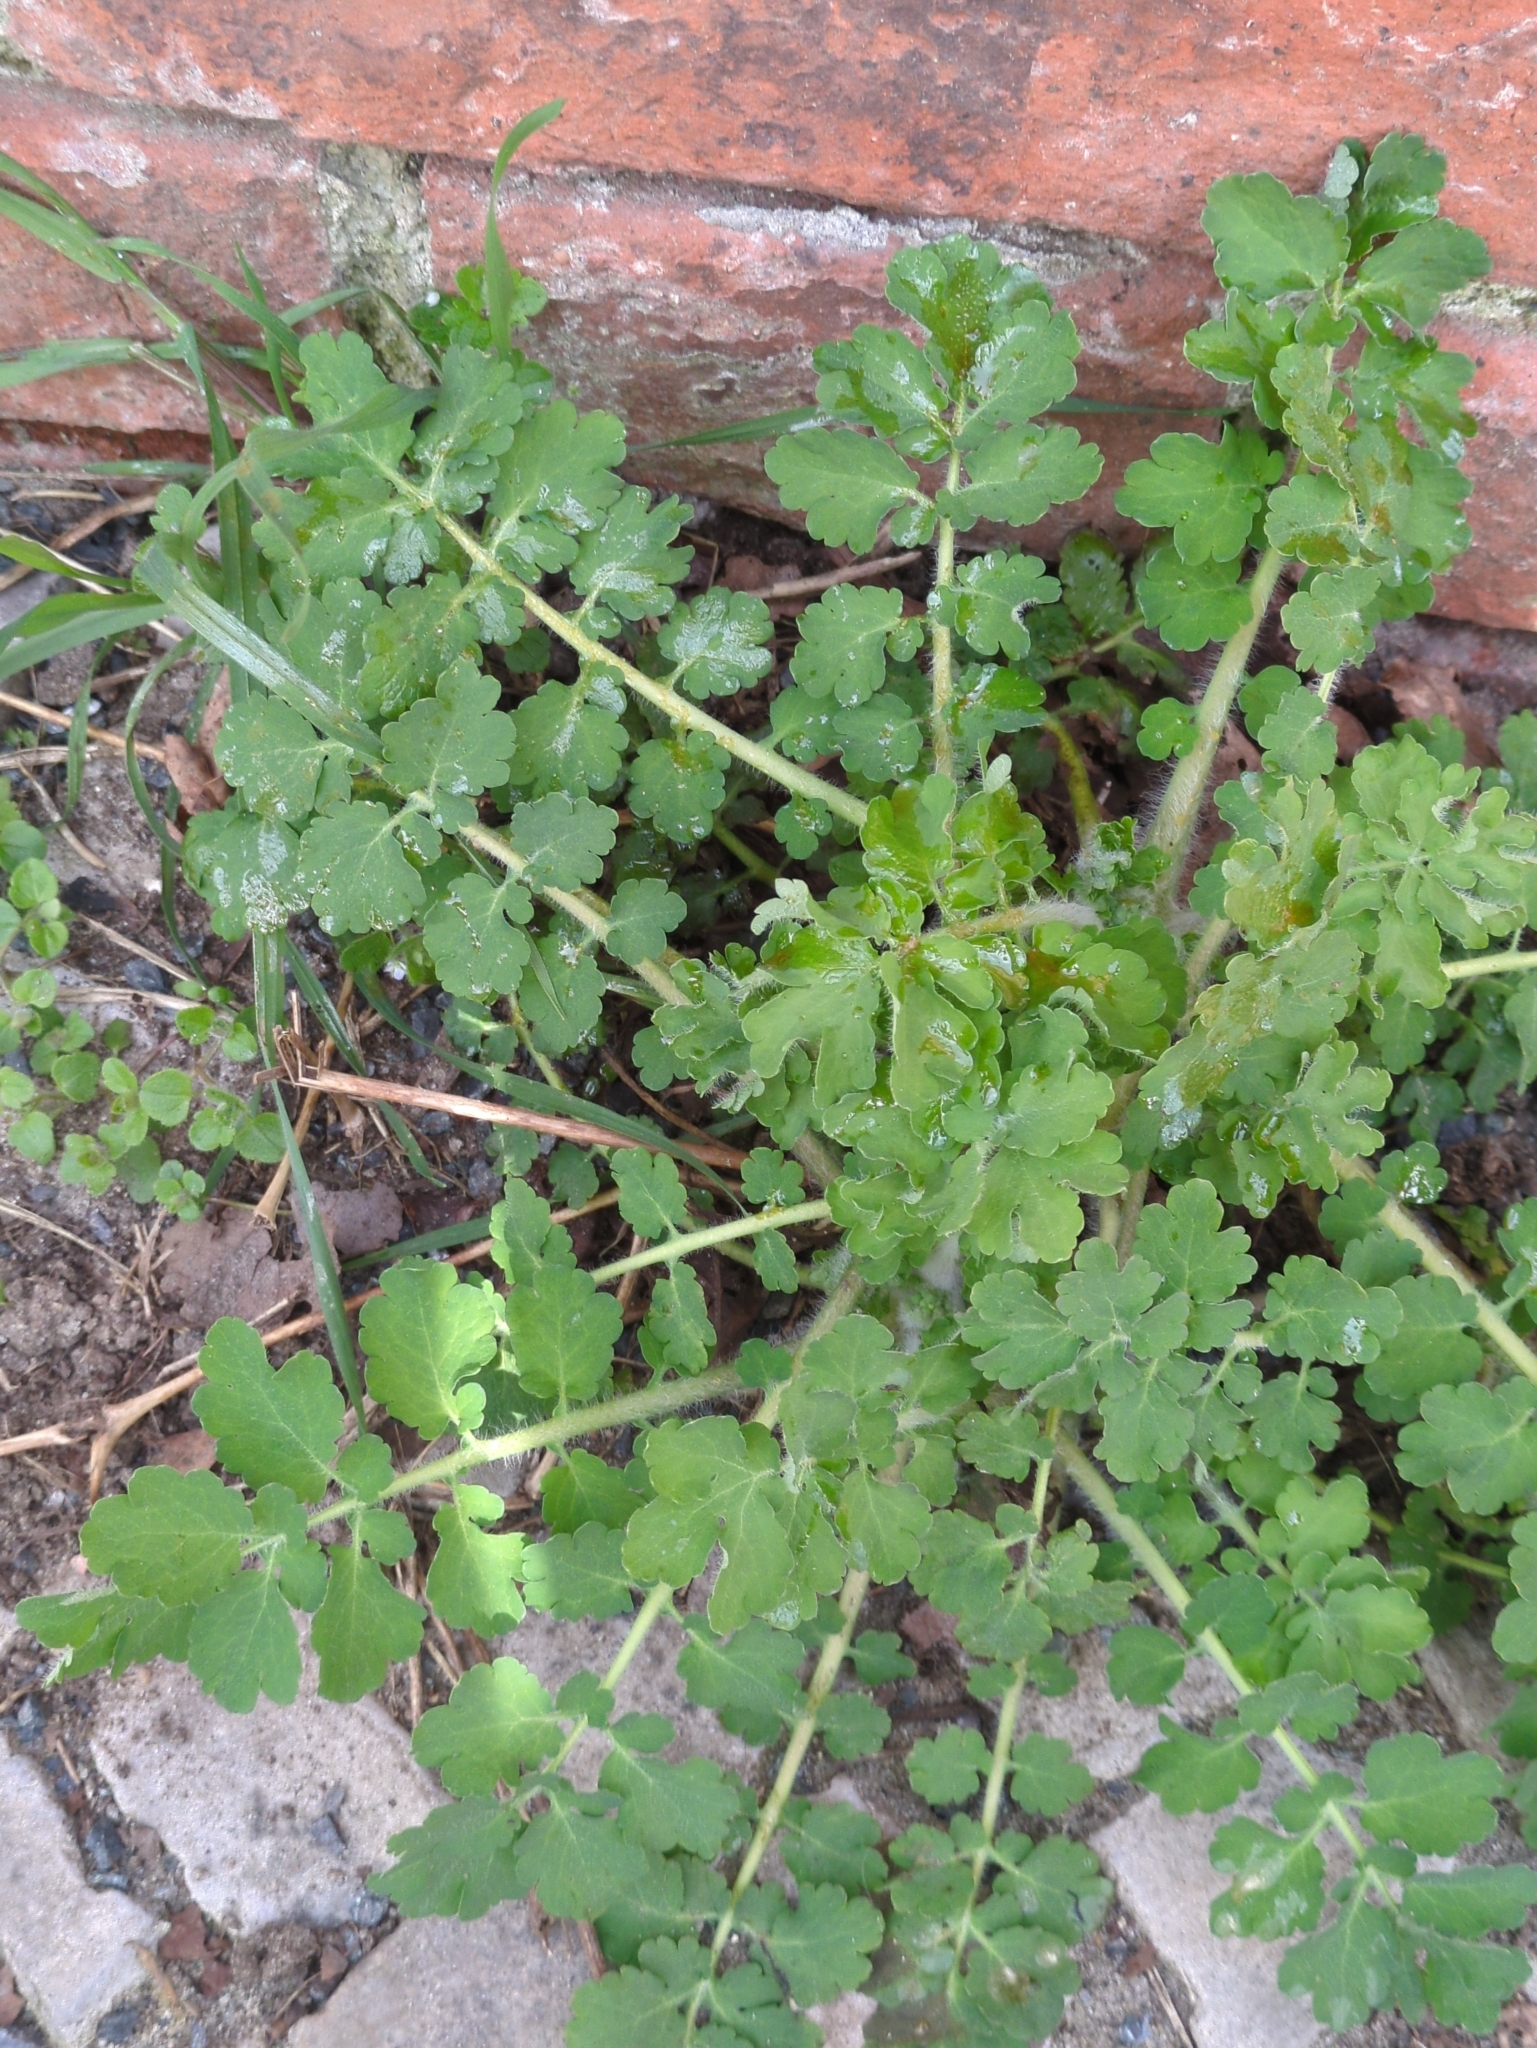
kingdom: Plantae
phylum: Tracheophyta
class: Magnoliopsida
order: Ranunculales
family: Papaveraceae
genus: Chelidonium
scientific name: Chelidonium majus
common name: Greater celandine
